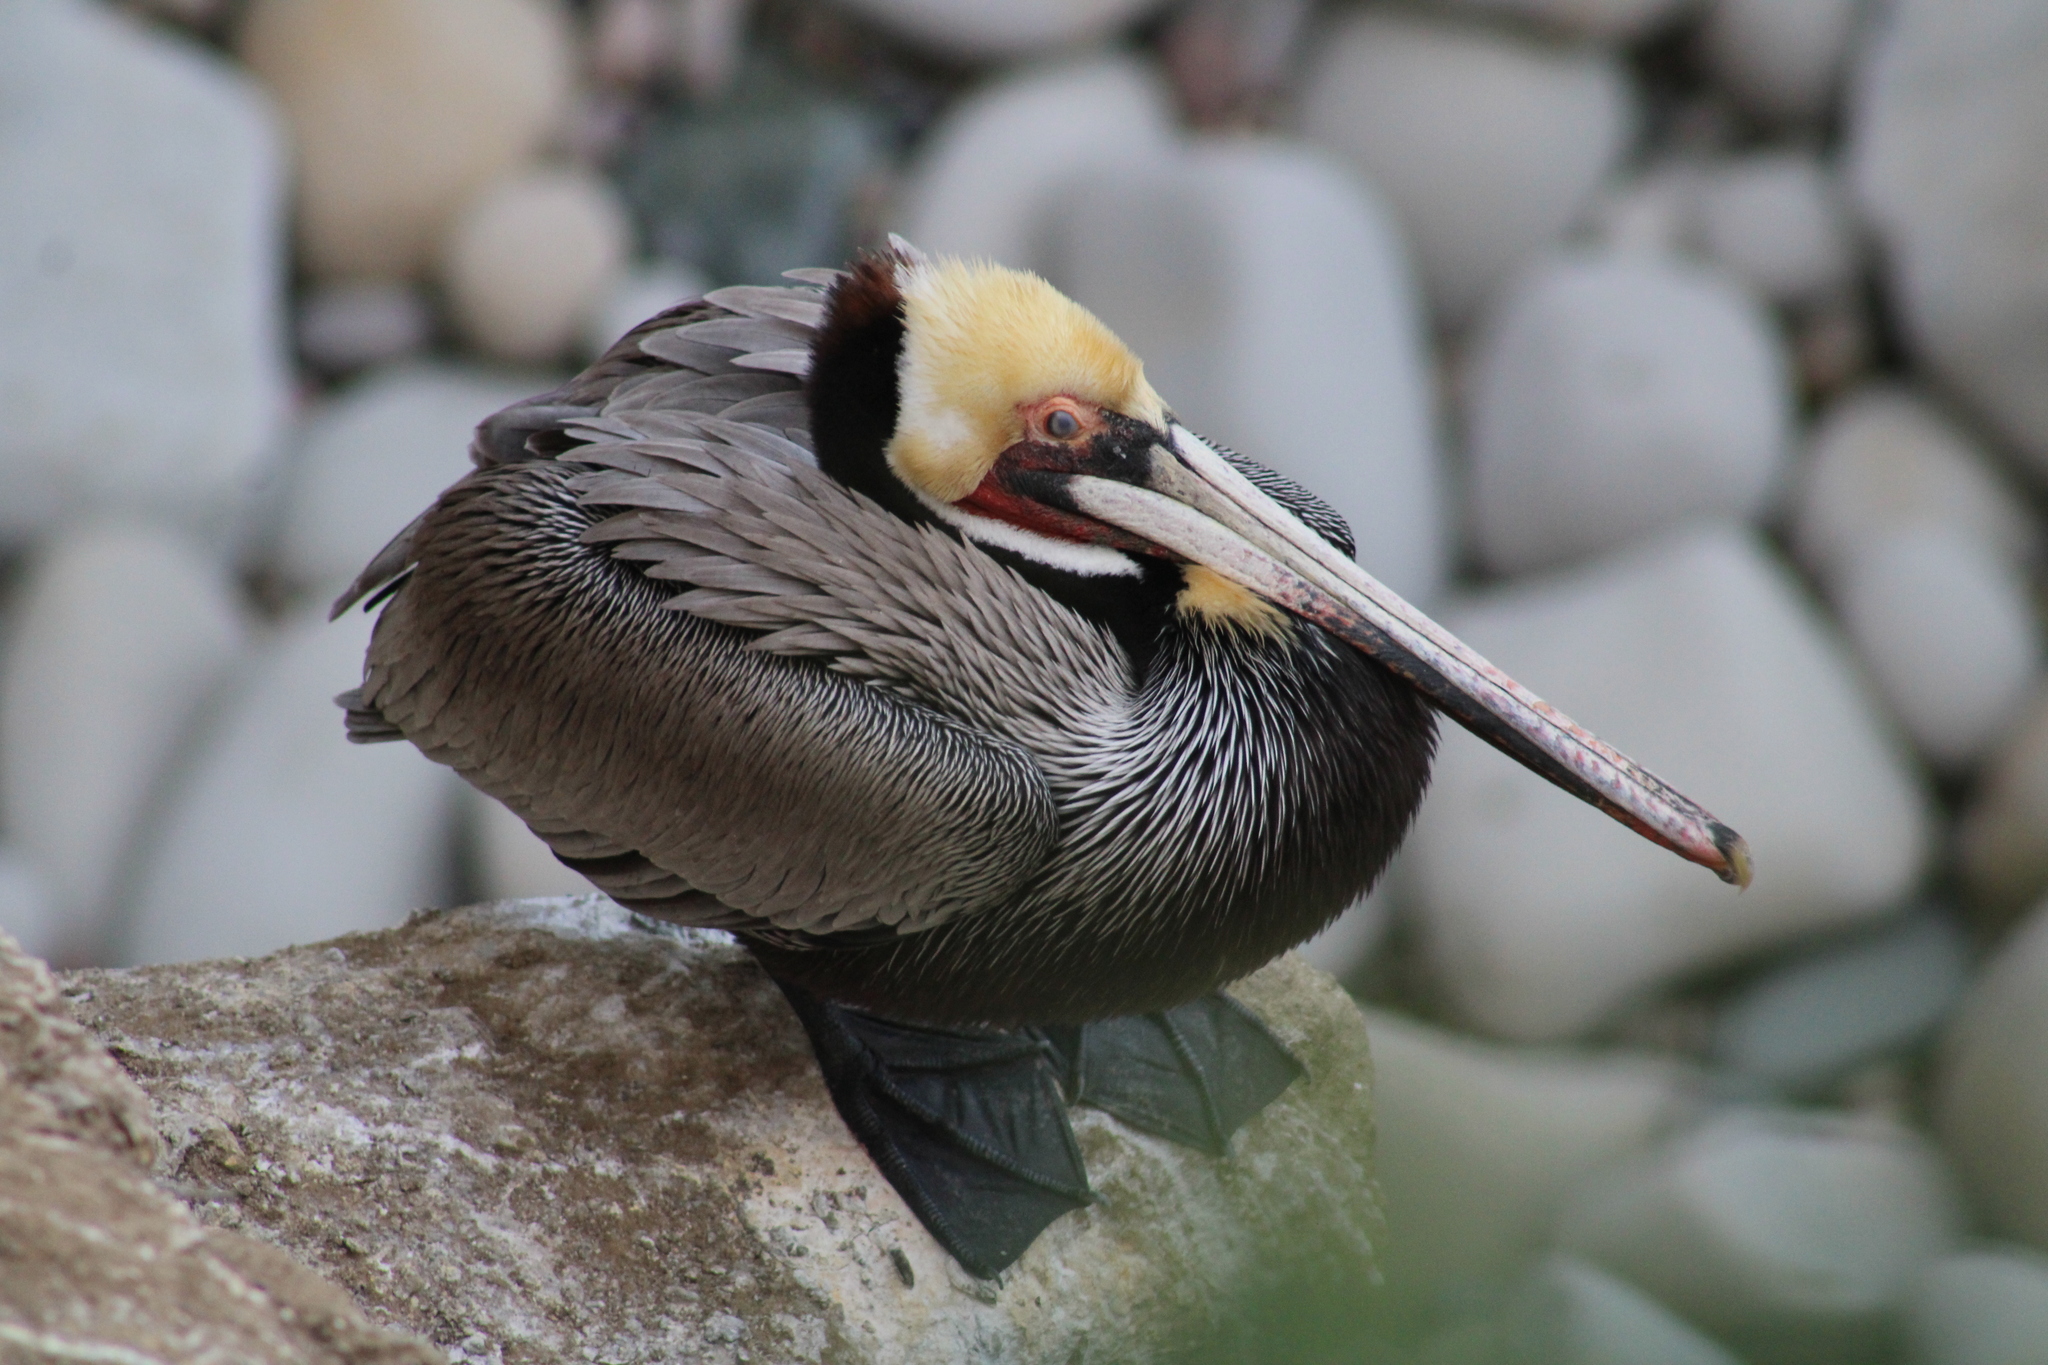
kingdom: Animalia
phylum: Chordata
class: Aves
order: Pelecaniformes
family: Pelecanidae
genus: Pelecanus
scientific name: Pelecanus occidentalis
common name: Brown pelican
